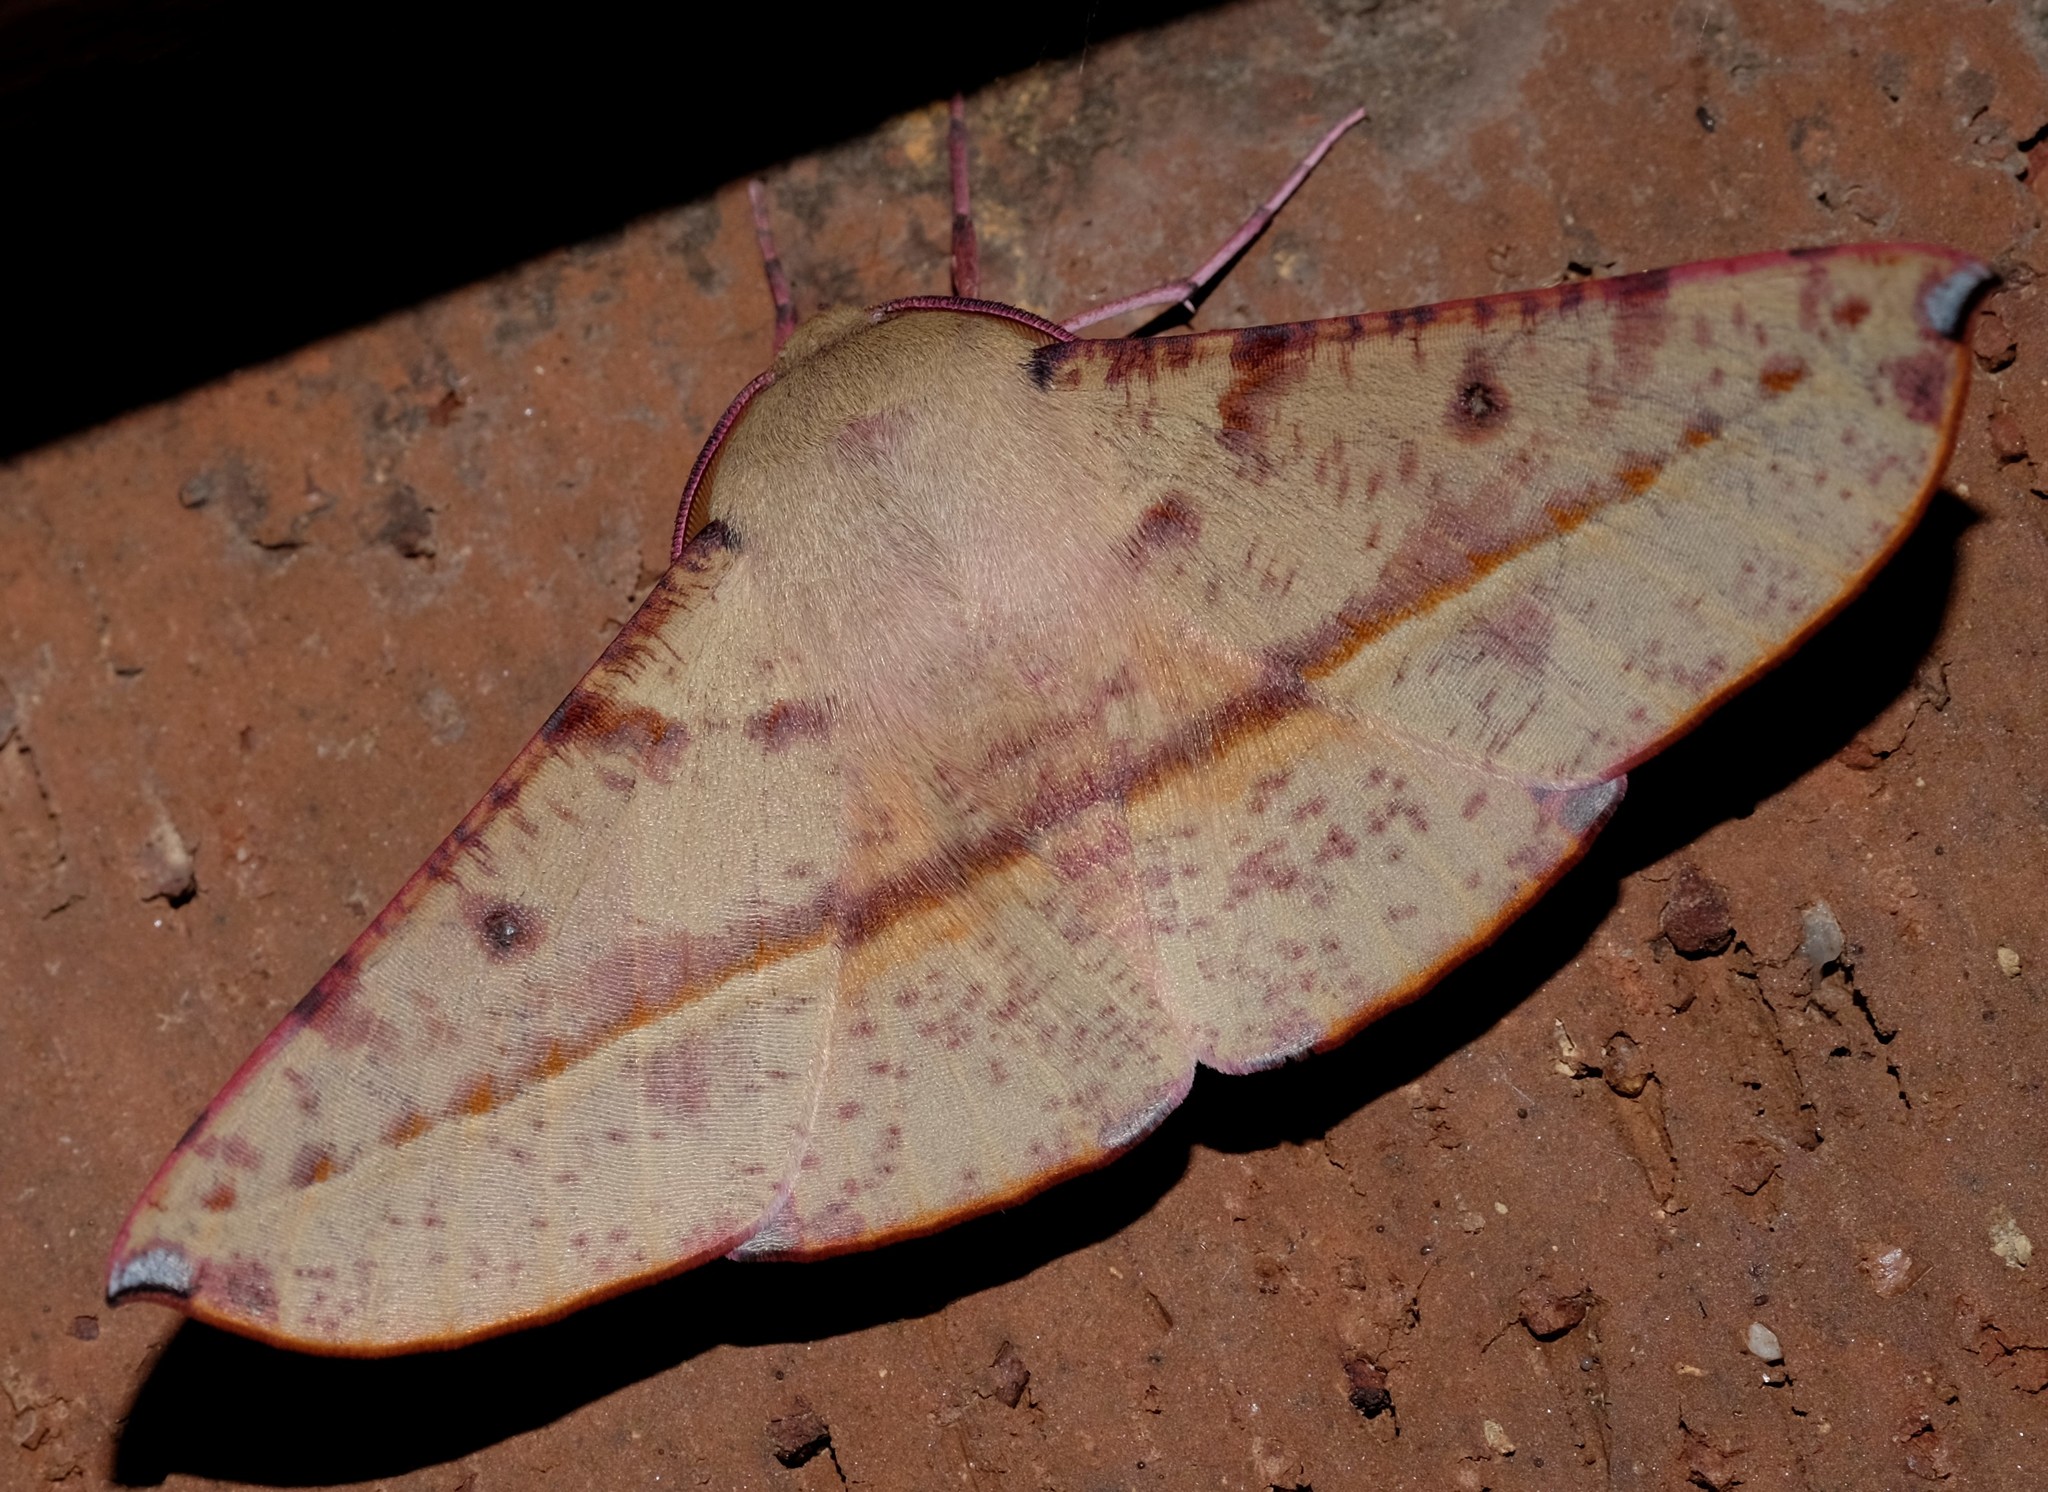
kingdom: Animalia
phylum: Arthropoda
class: Insecta
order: Lepidoptera
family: Geometridae
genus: Oenochroma
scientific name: Oenochroma vinaria
